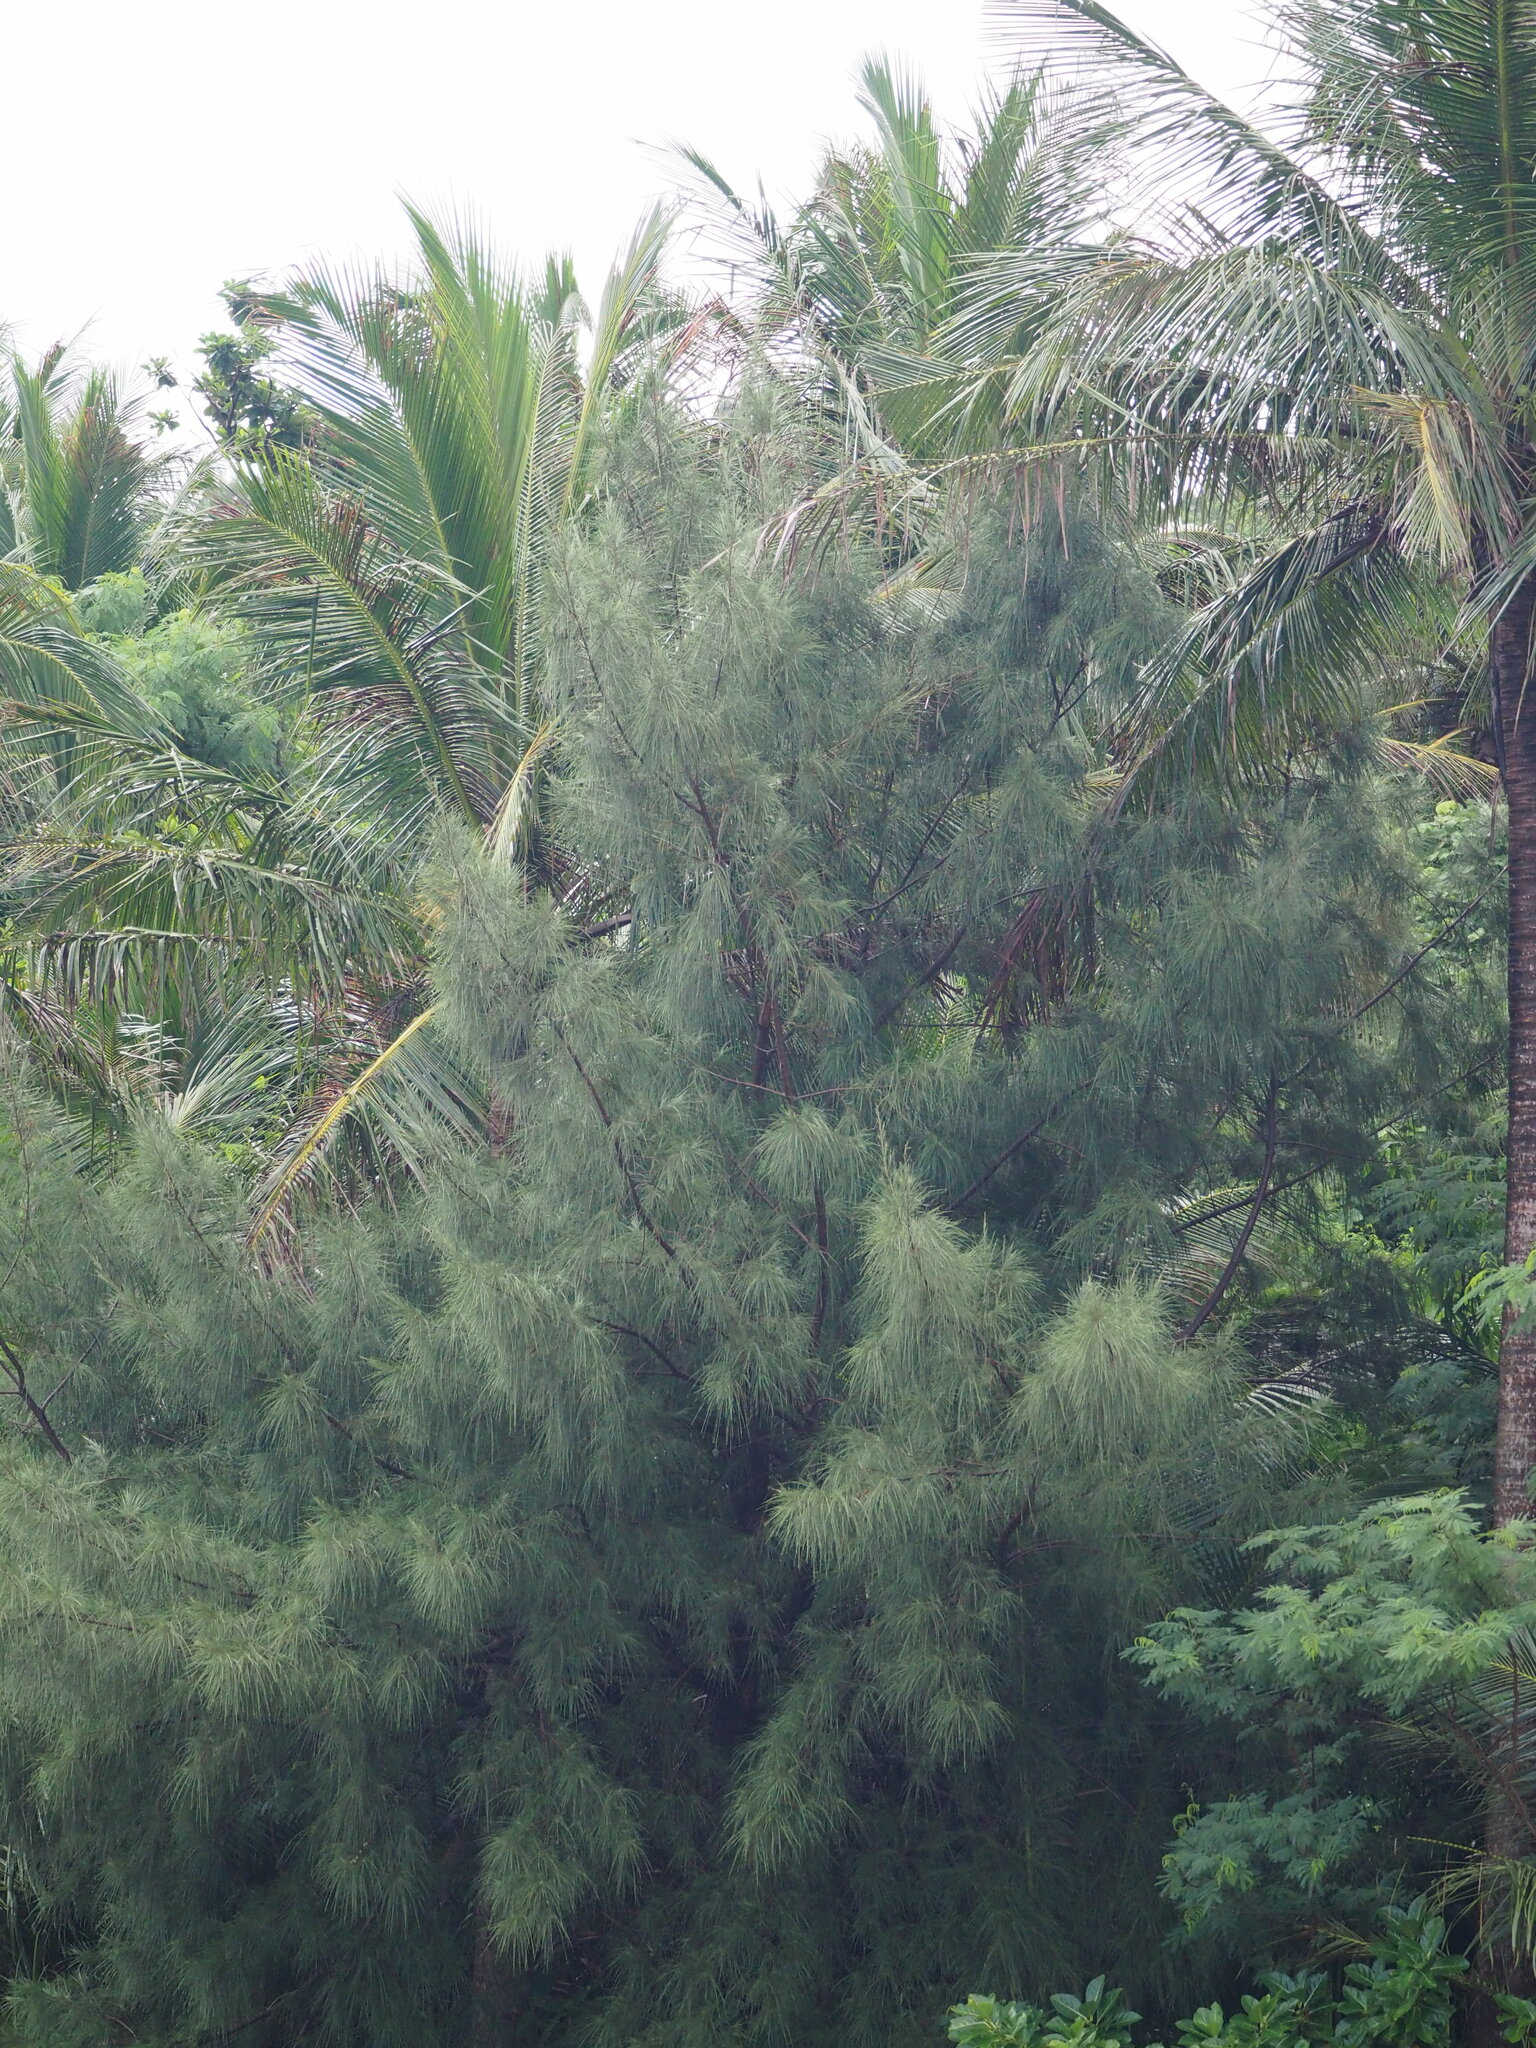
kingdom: Plantae
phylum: Tracheophyta
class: Magnoliopsida
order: Fagales
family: Casuarinaceae
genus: Casuarina
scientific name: Casuarina equisetifolia
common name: Beach sheoak
